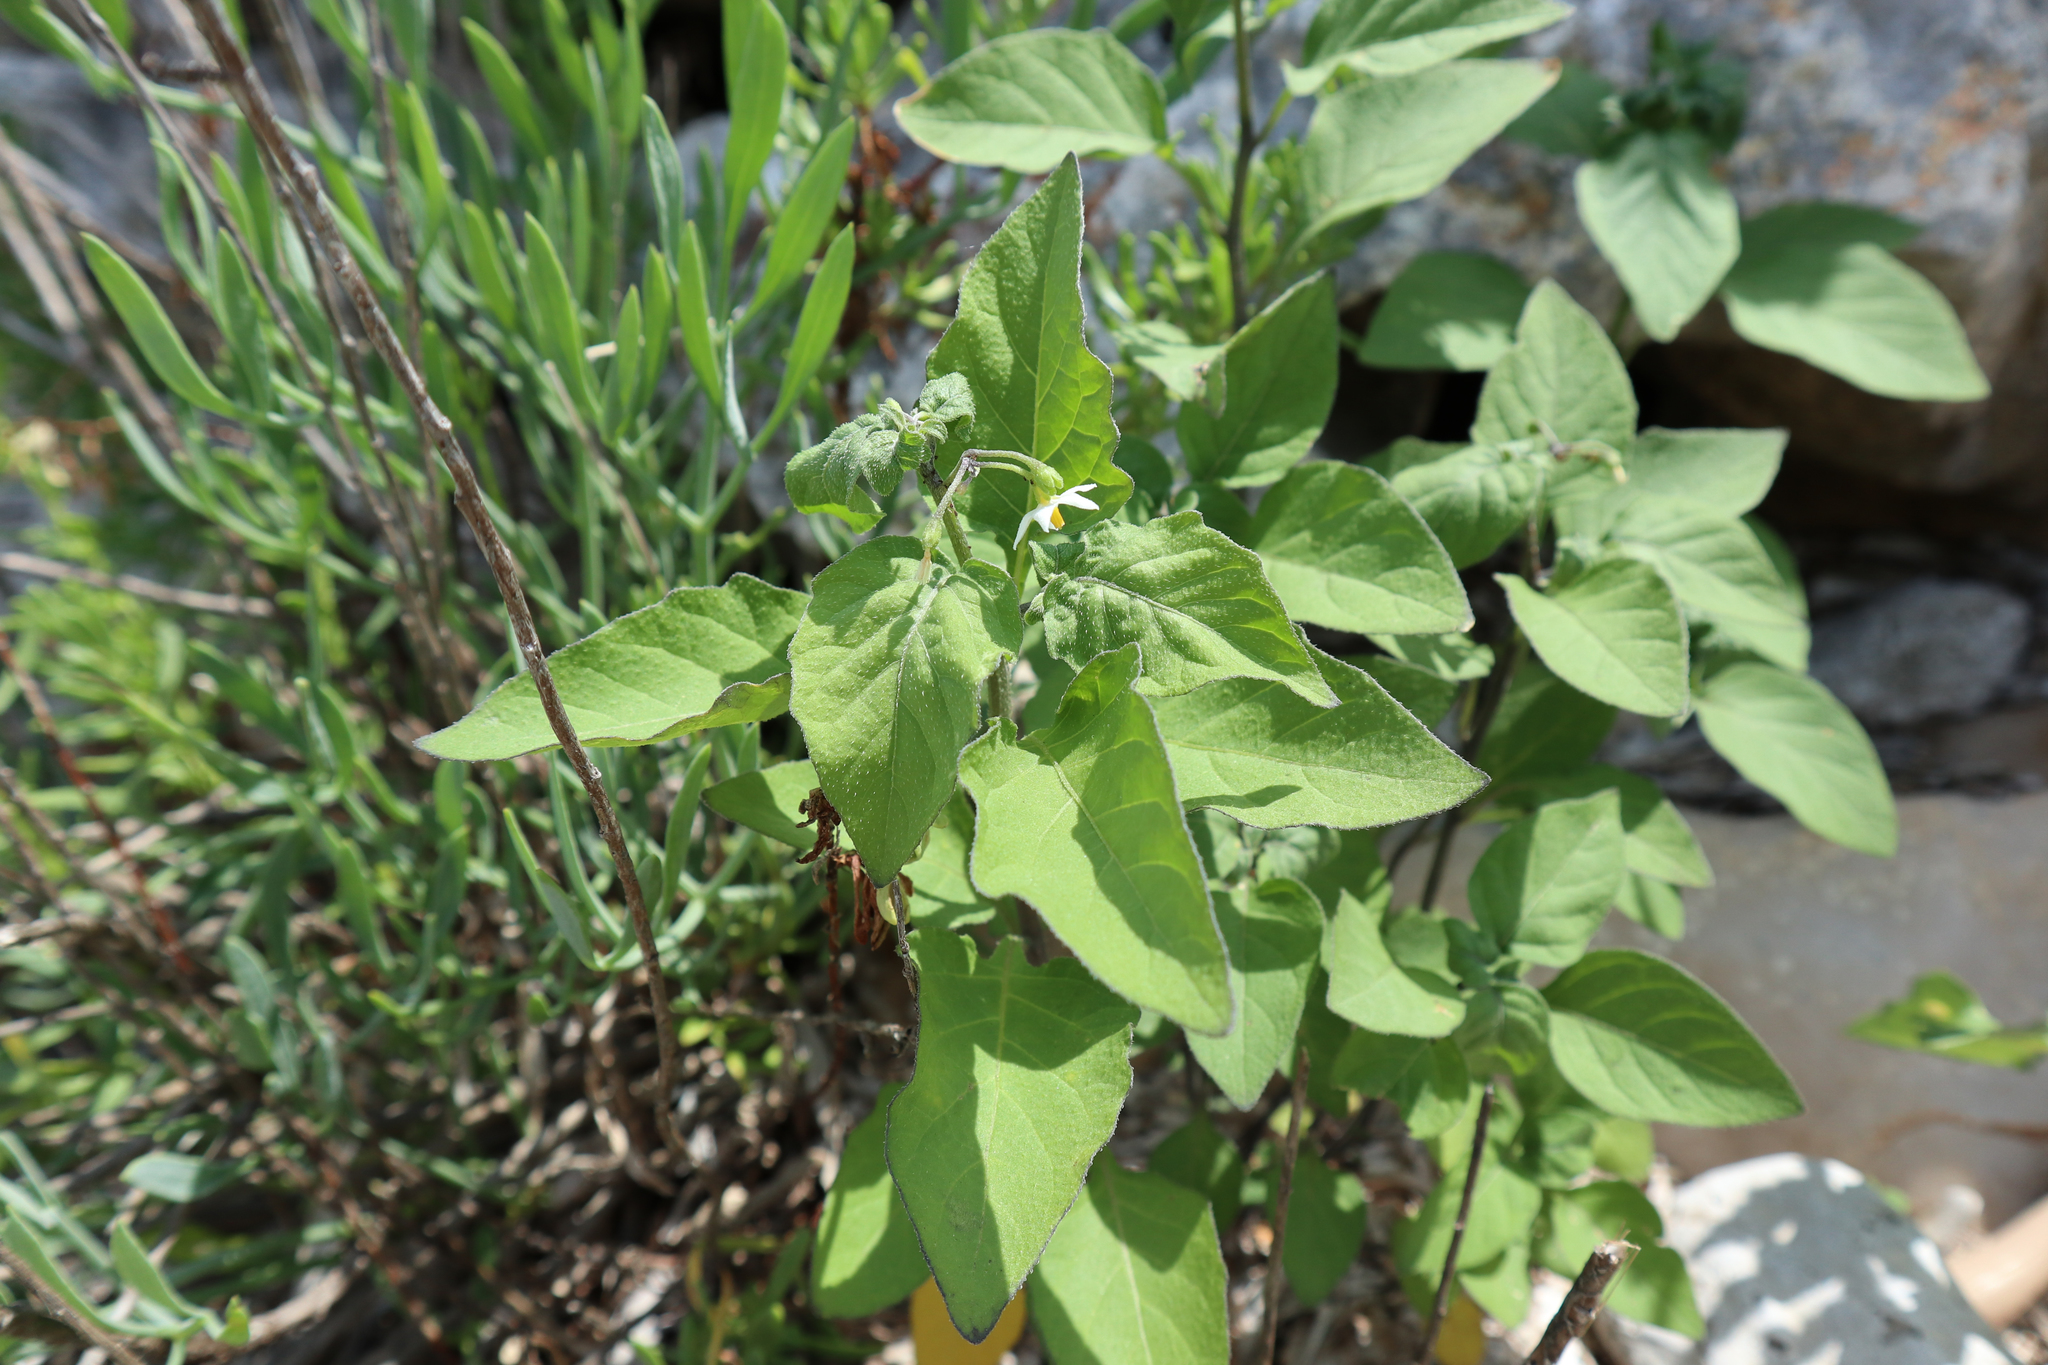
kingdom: Plantae
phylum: Tracheophyta
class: Magnoliopsida
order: Solanales
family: Solanaceae
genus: Solanum
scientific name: Solanum nigrum
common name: Black nightshade
